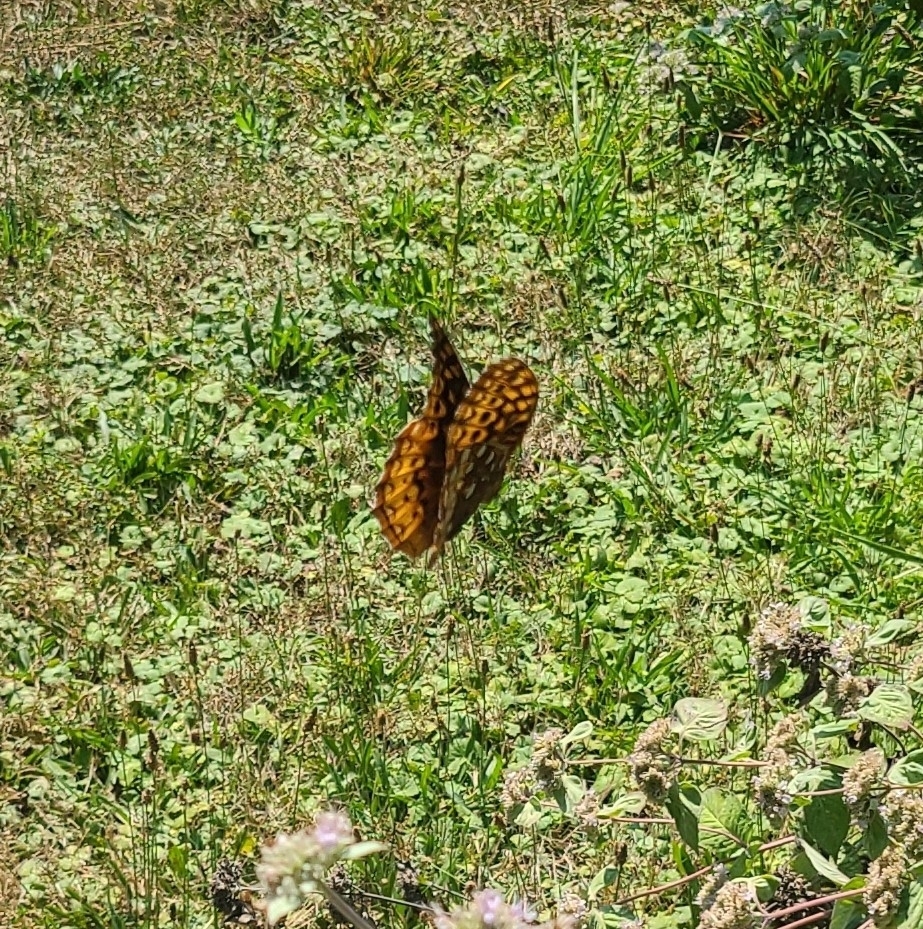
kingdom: Animalia
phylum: Arthropoda
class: Insecta
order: Lepidoptera
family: Nymphalidae
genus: Speyeria
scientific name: Speyeria cybele
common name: Great spangled fritillary
